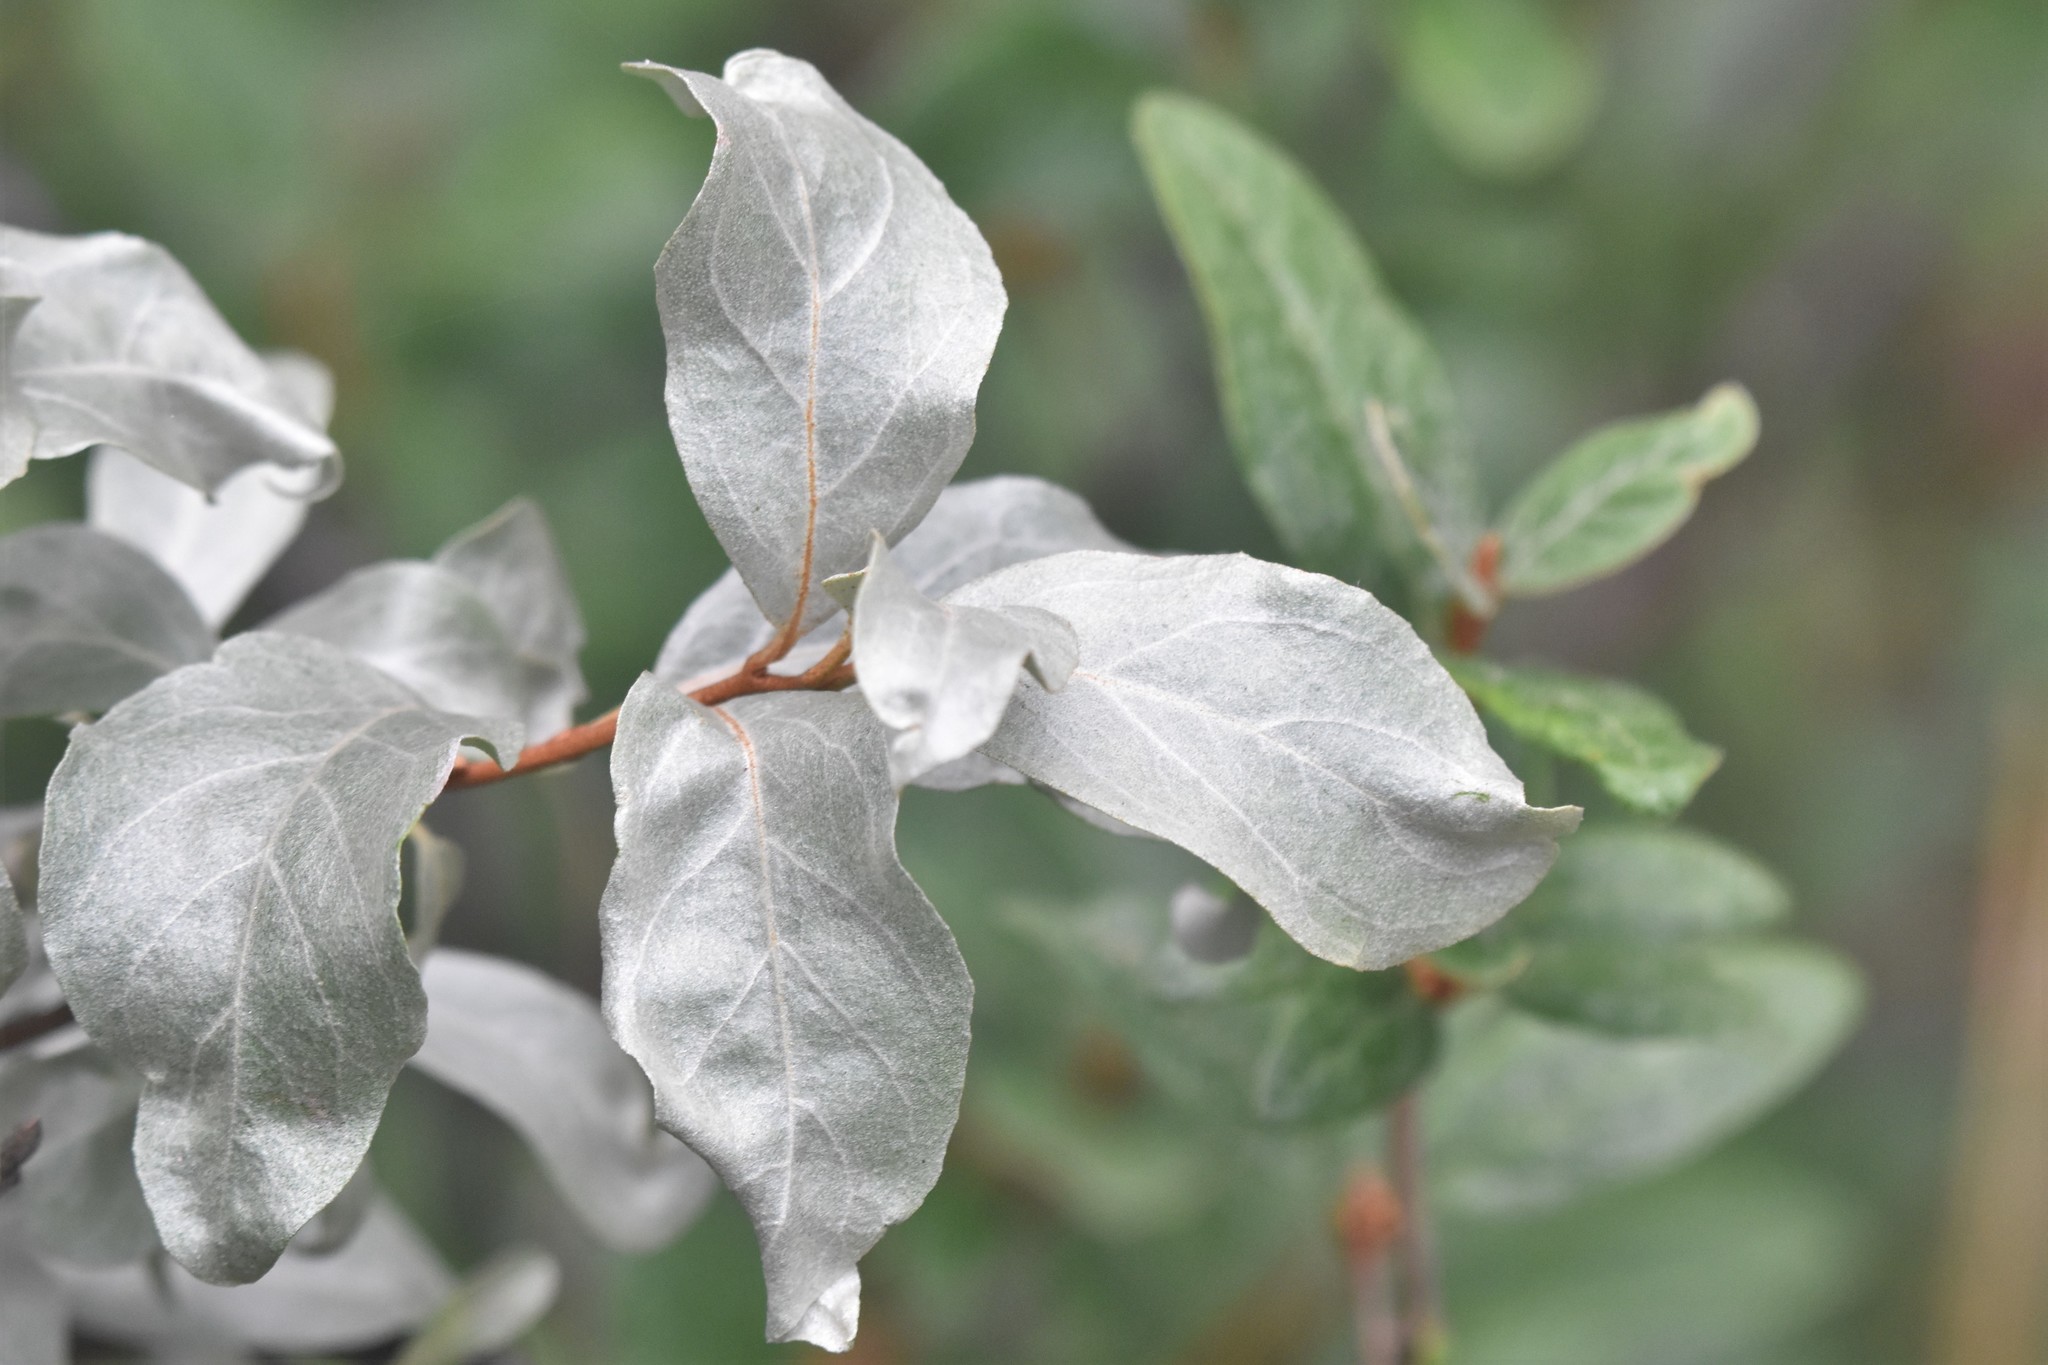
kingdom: Plantae
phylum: Tracheophyta
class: Magnoliopsida
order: Rosales
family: Elaeagnaceae
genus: Elaeagnus
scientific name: Elaeagnus commutata
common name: Silverberry
